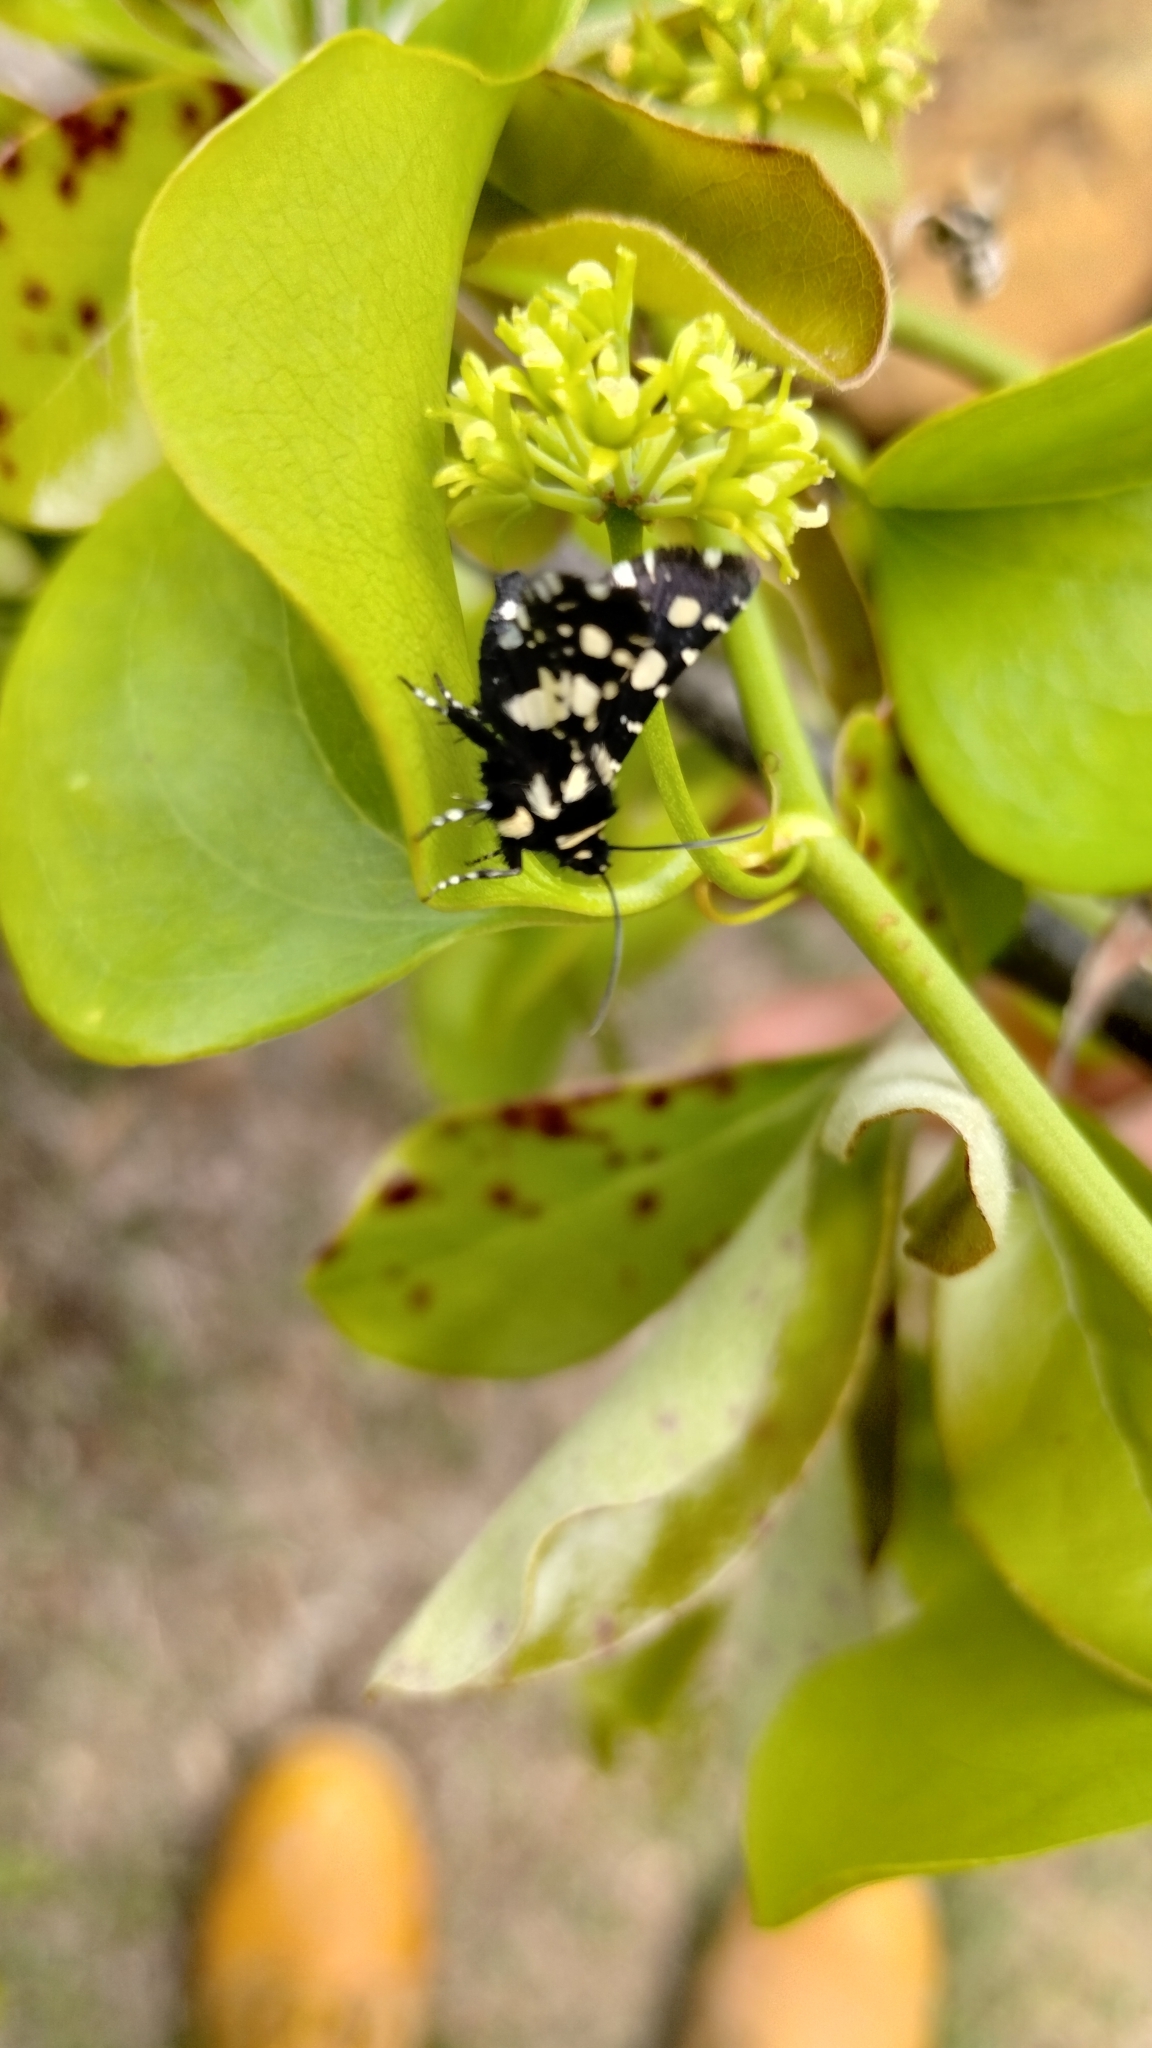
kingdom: Animalia
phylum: Arthropoda
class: Insecta
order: Lepidoptera
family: Thyrididae
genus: Pseudothyris
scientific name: Pseudothyris sepulchralis
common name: Mournful thyris moth
